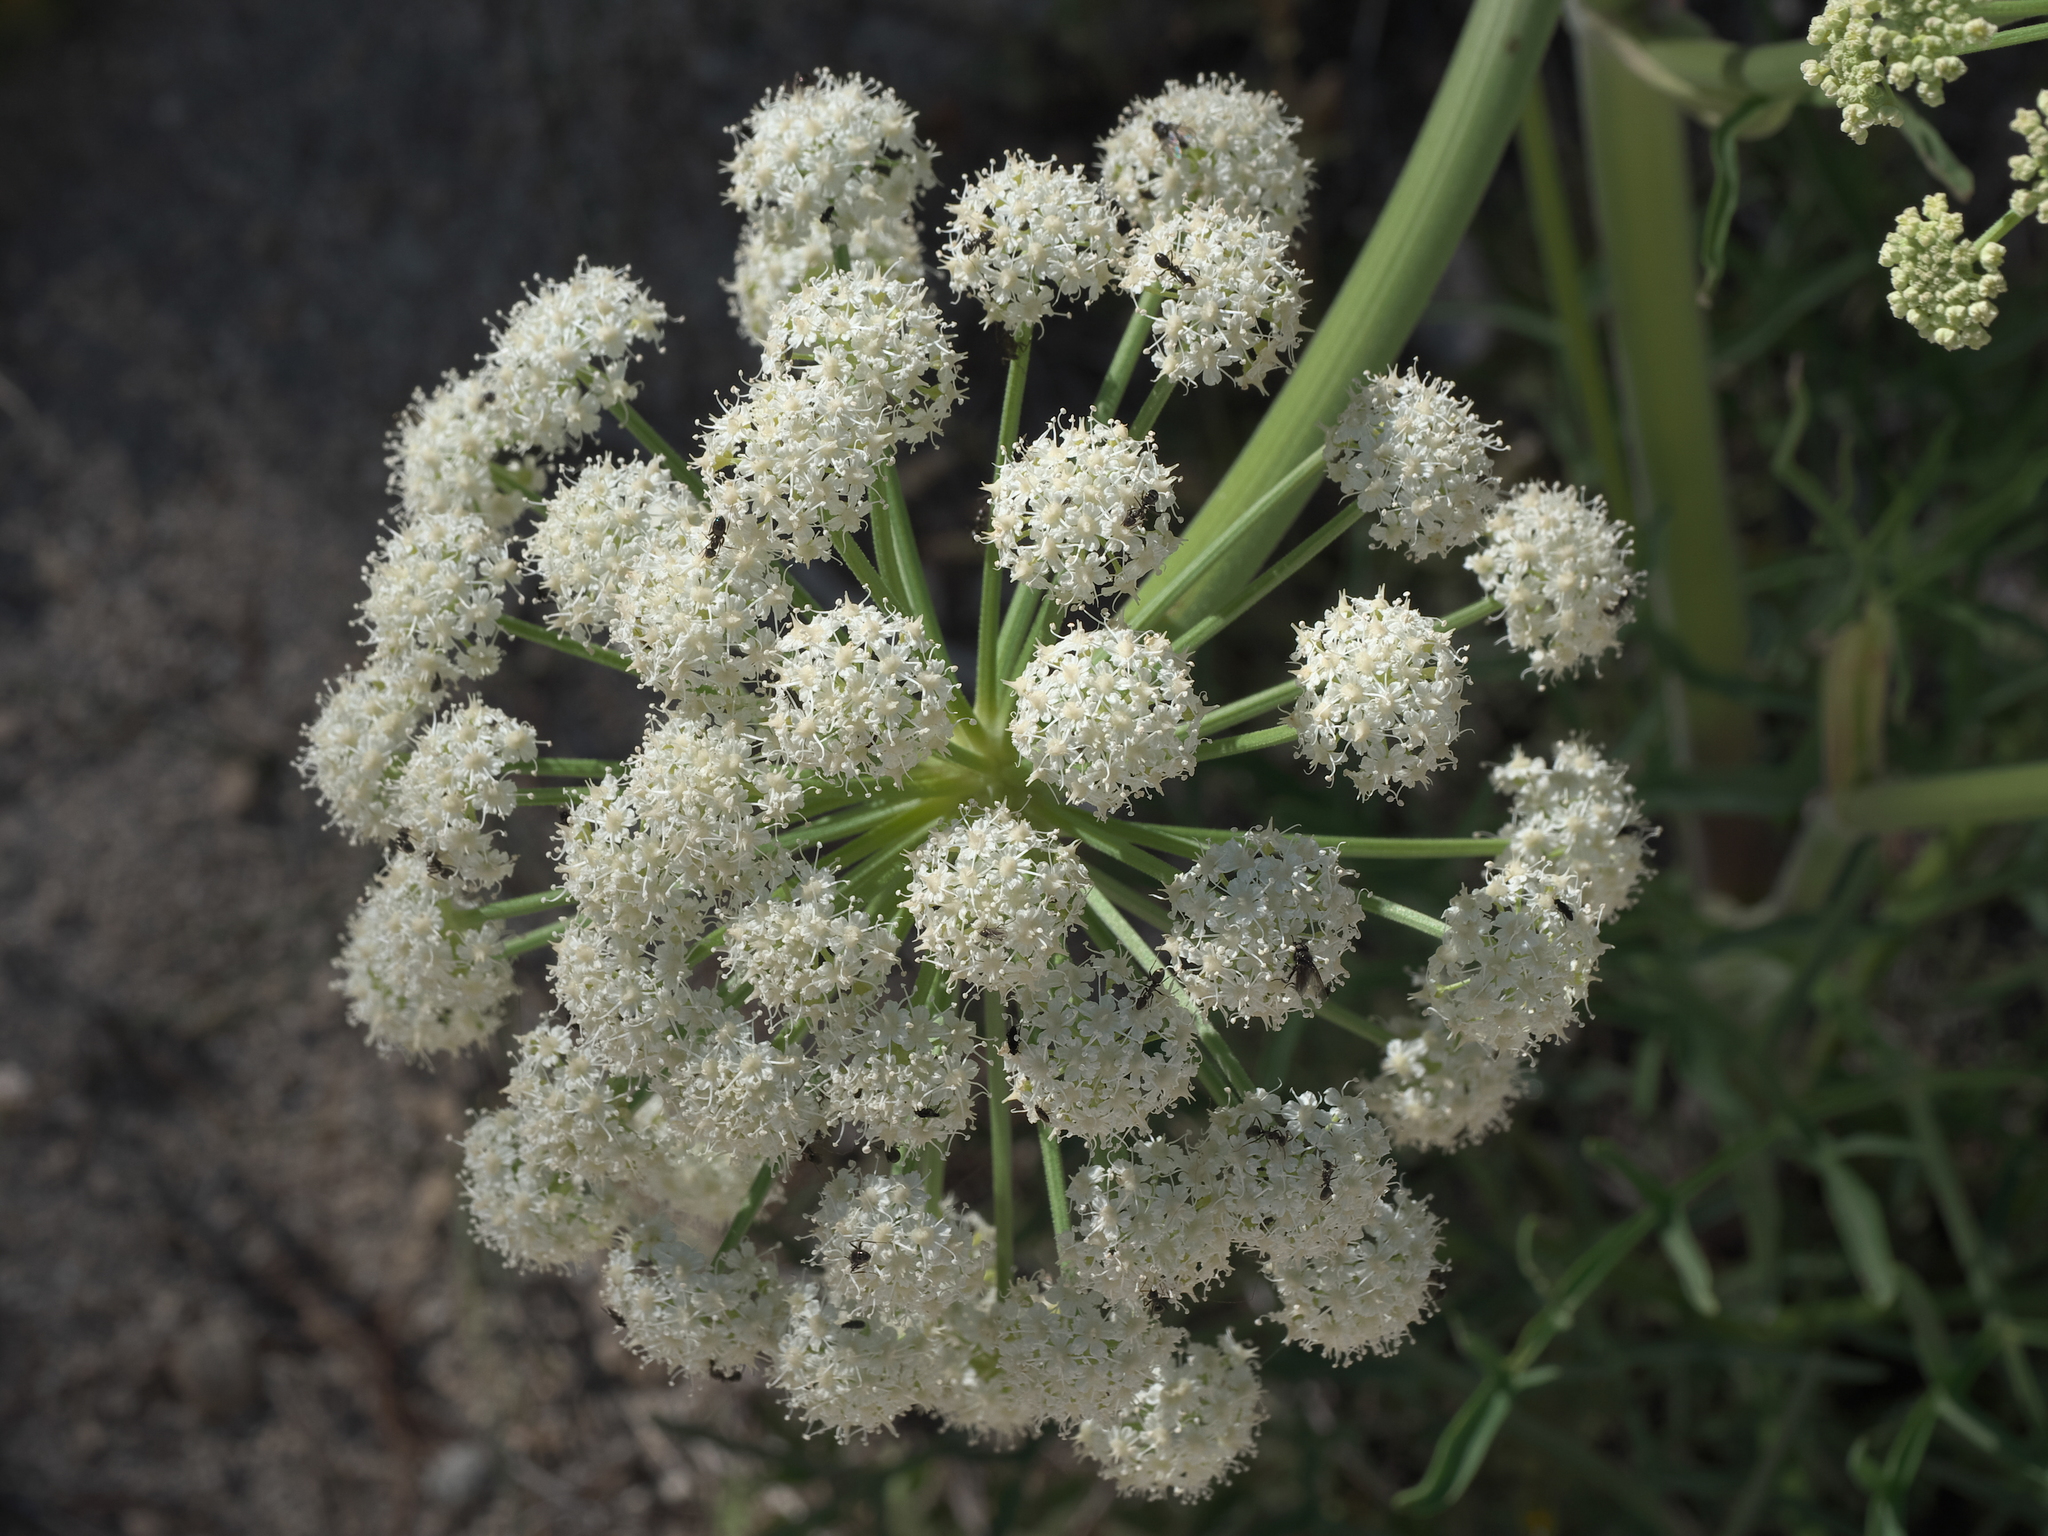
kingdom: Plantae
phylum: Tracheophyta
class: Magnoliopsida
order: Apiales
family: Apiaceae
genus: Angelica
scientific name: Angelica lineariloba
